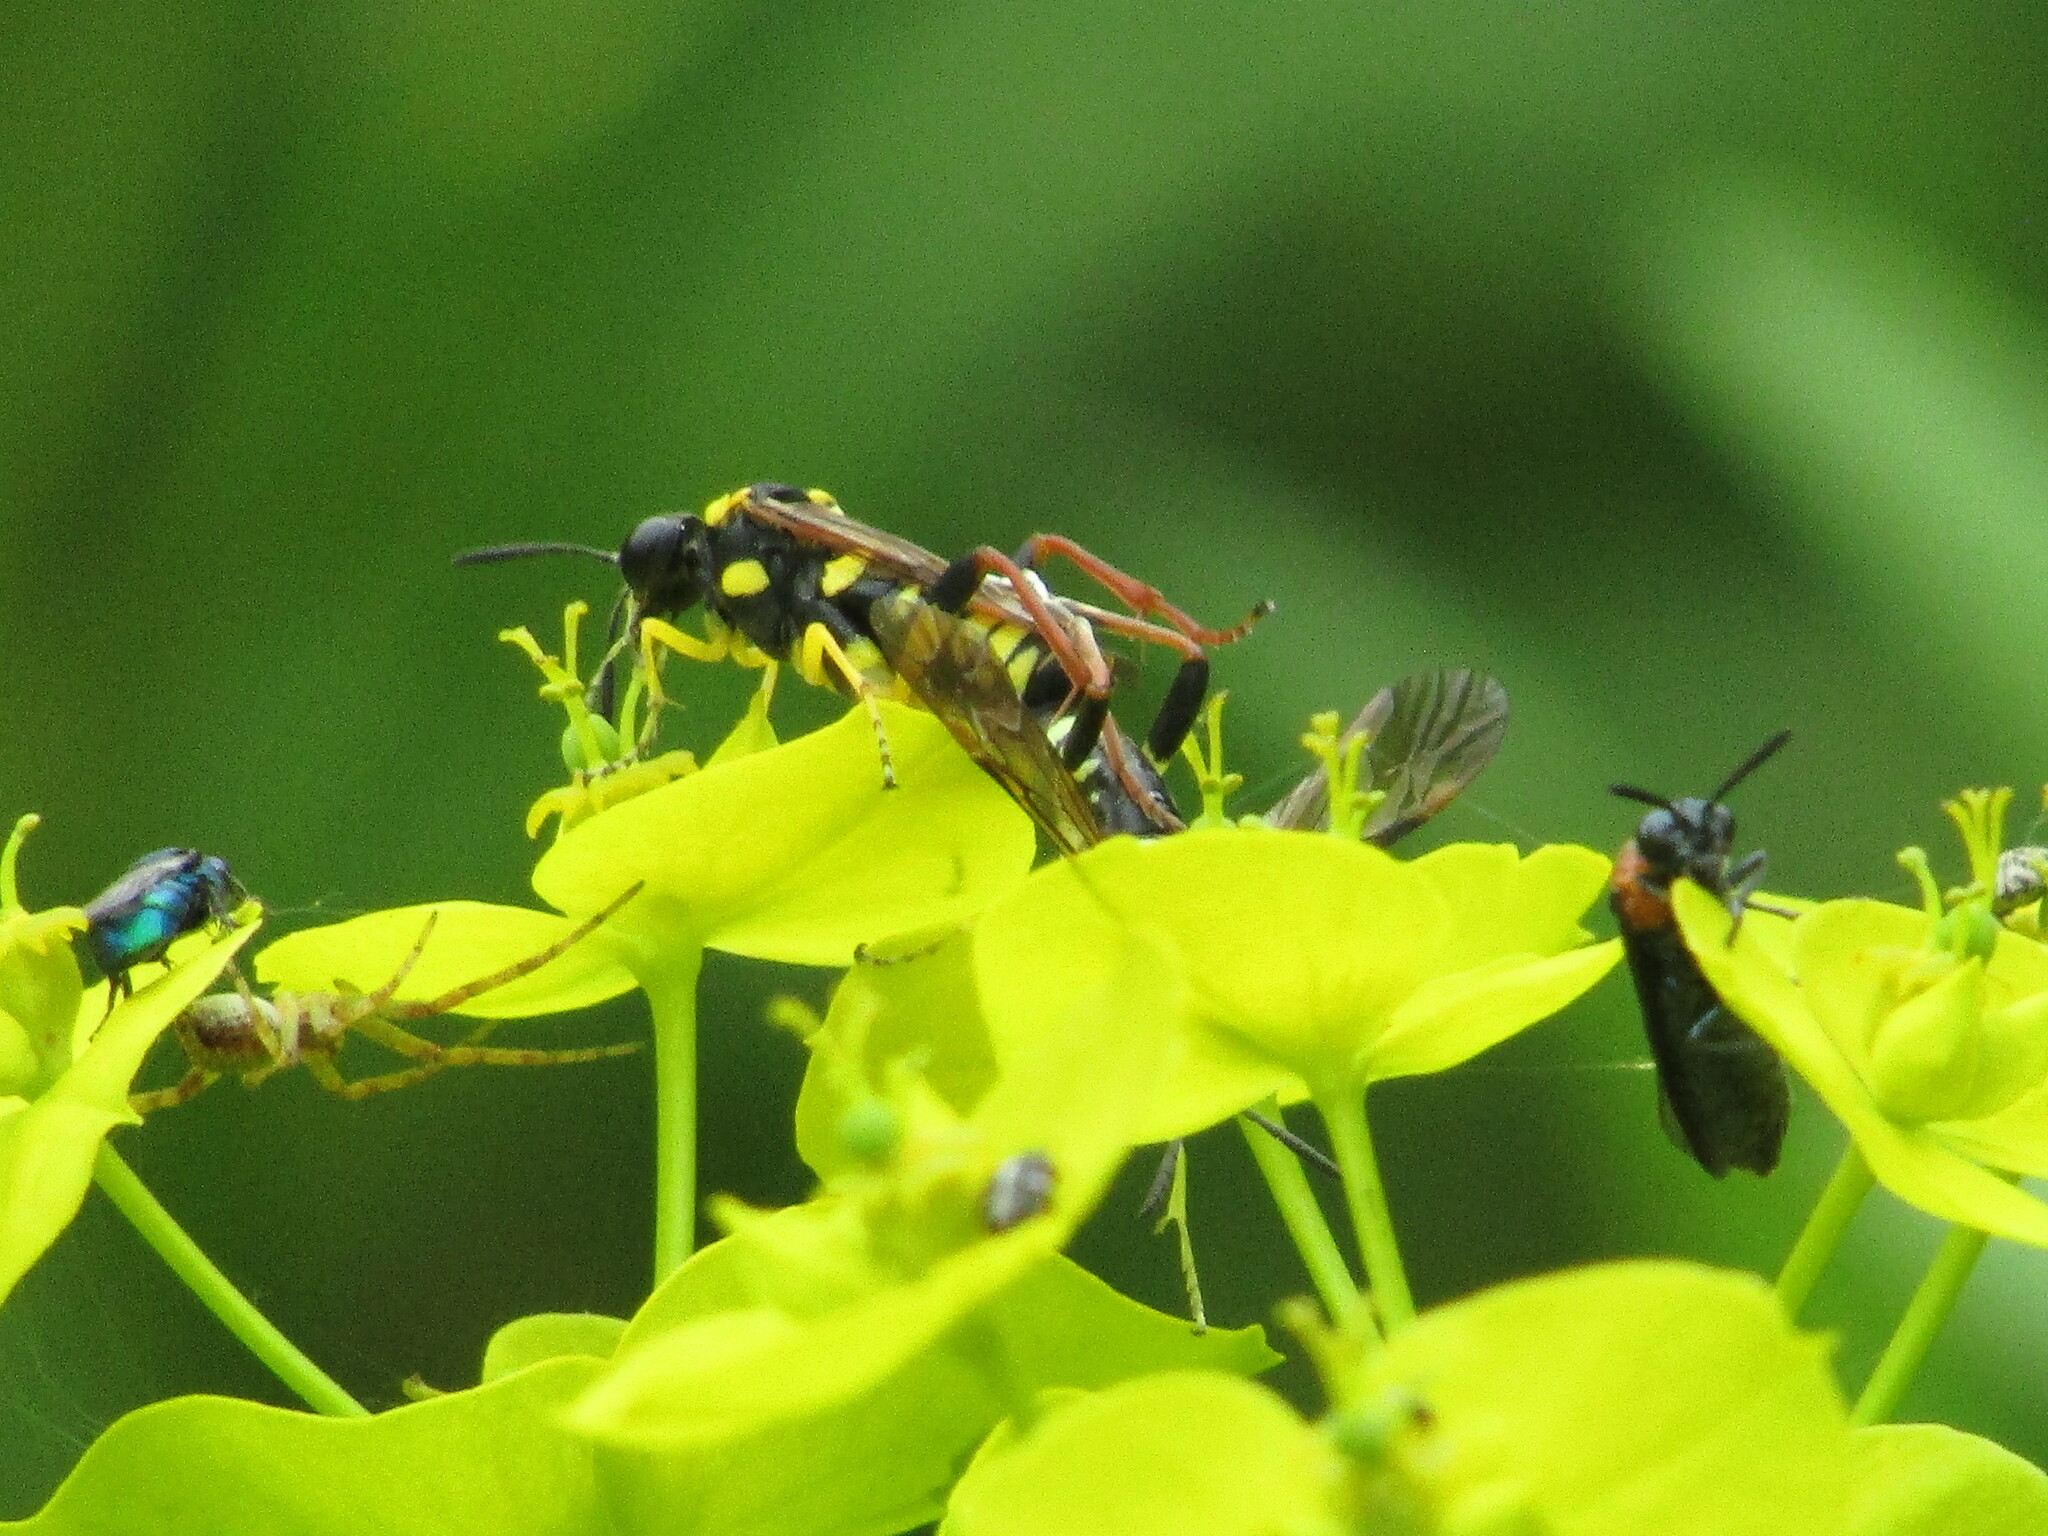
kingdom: Animalia
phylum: Arthropoda
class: Insecta
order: Hymenoptera
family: Tenthredinidae
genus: Macrophya
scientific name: Macrophya postica
